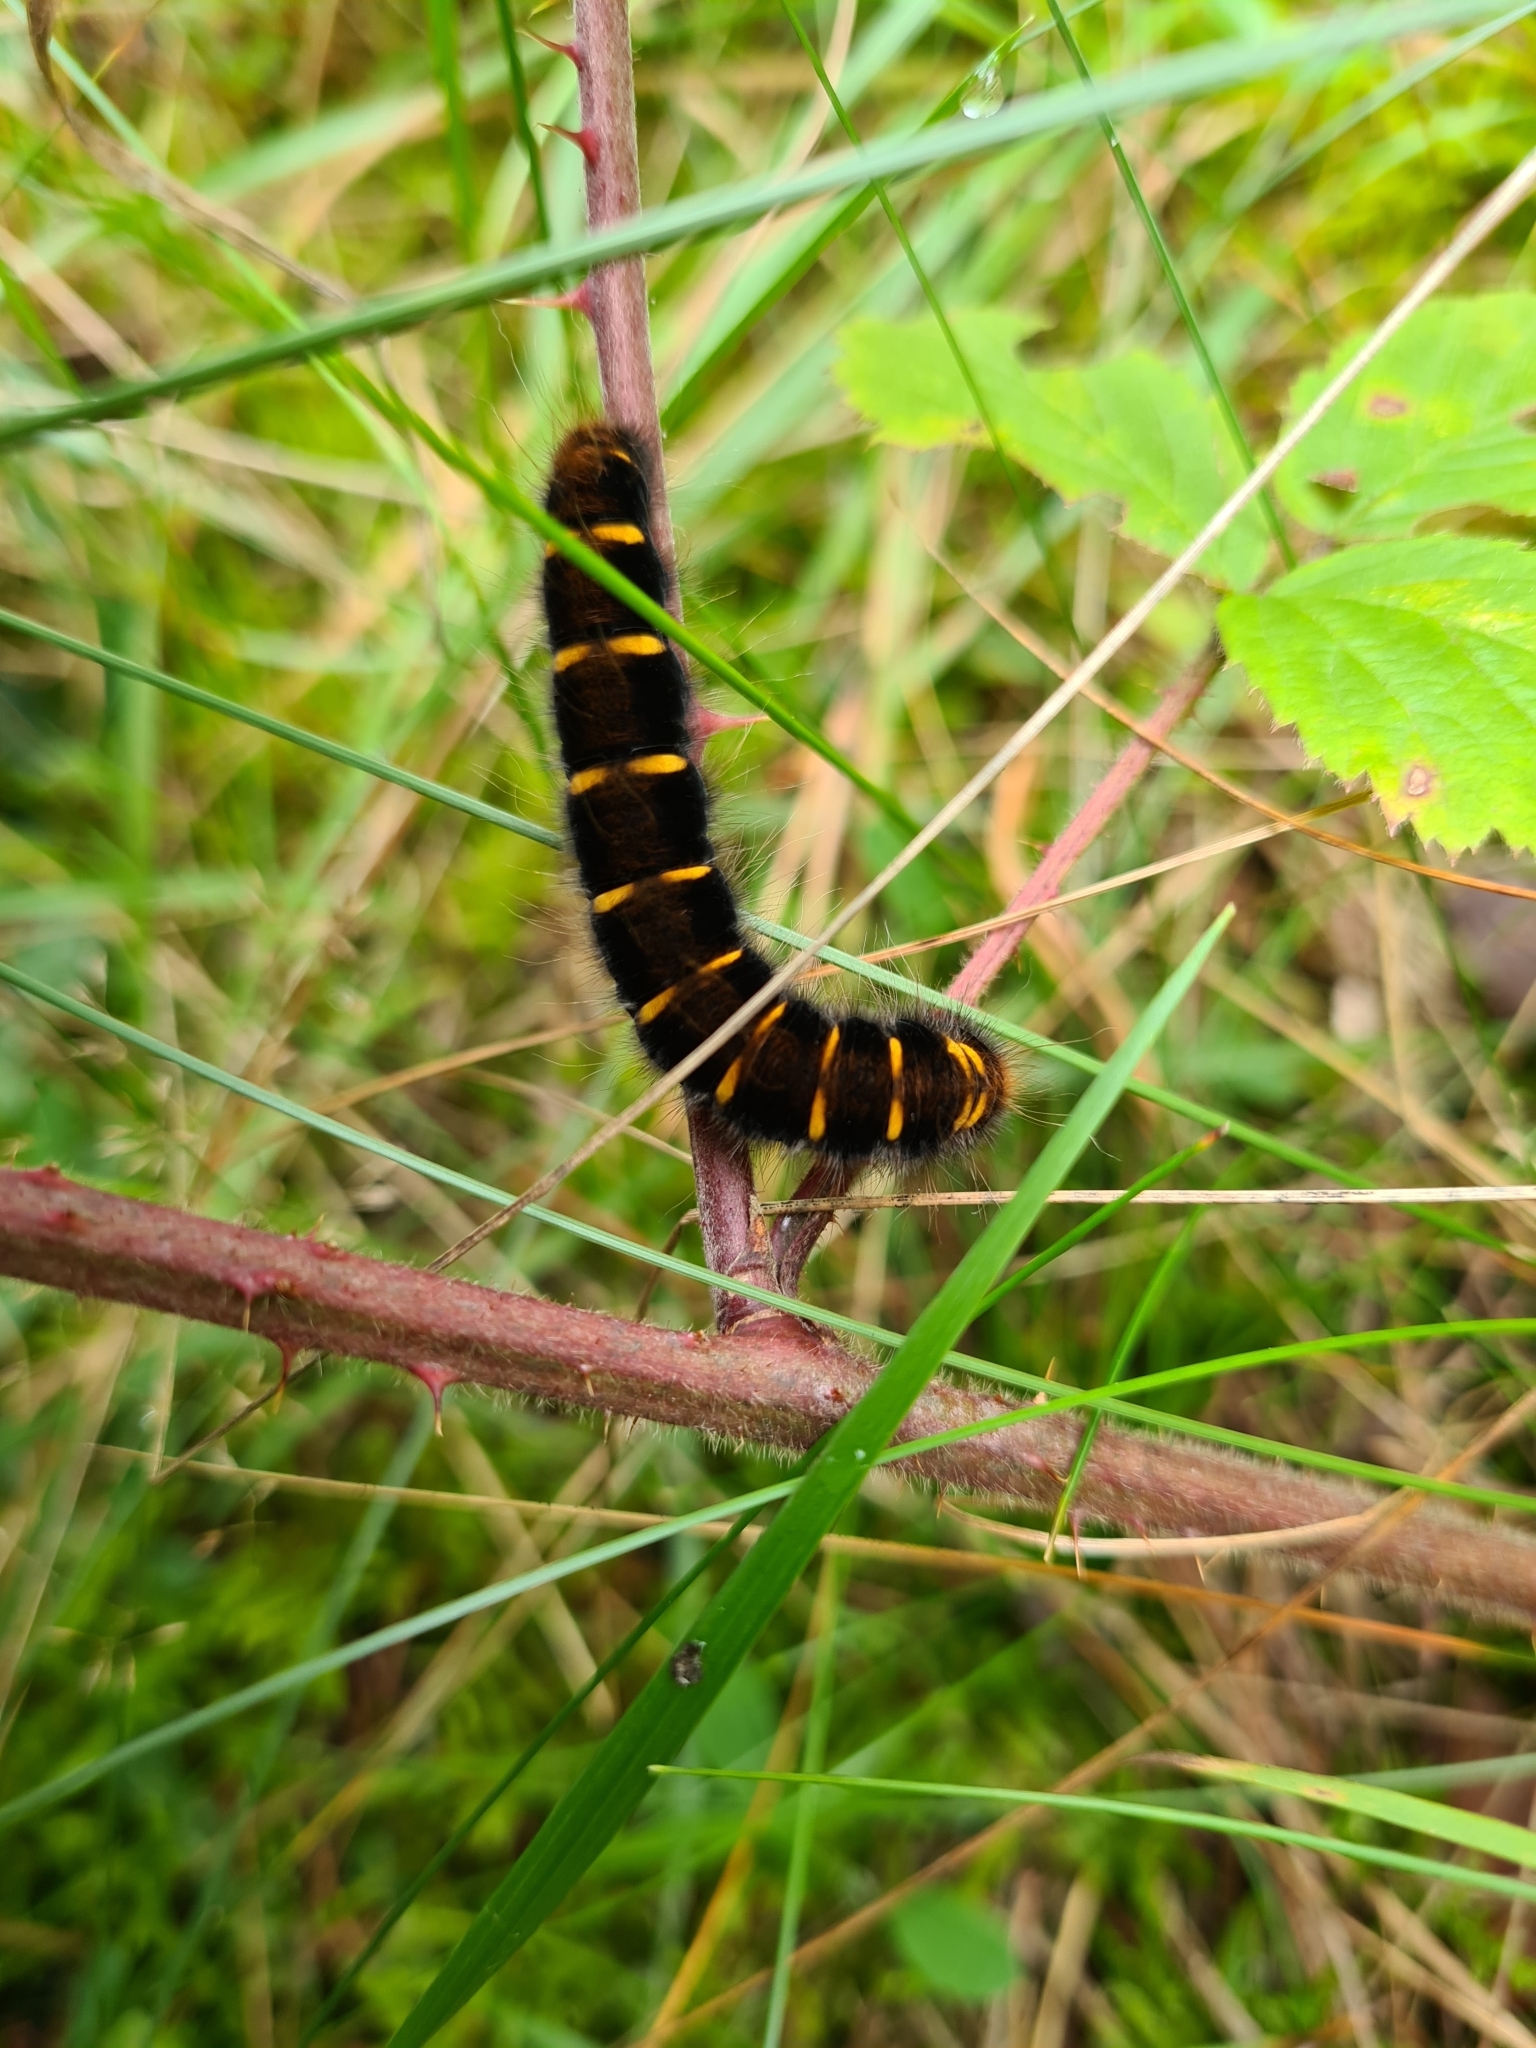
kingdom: Animalia
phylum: Arthropoda
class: Insecta
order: Lepidoptera
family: Lasiocampidae
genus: Macrothylacia
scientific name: Macrothylacia rubi
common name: Fox moth
